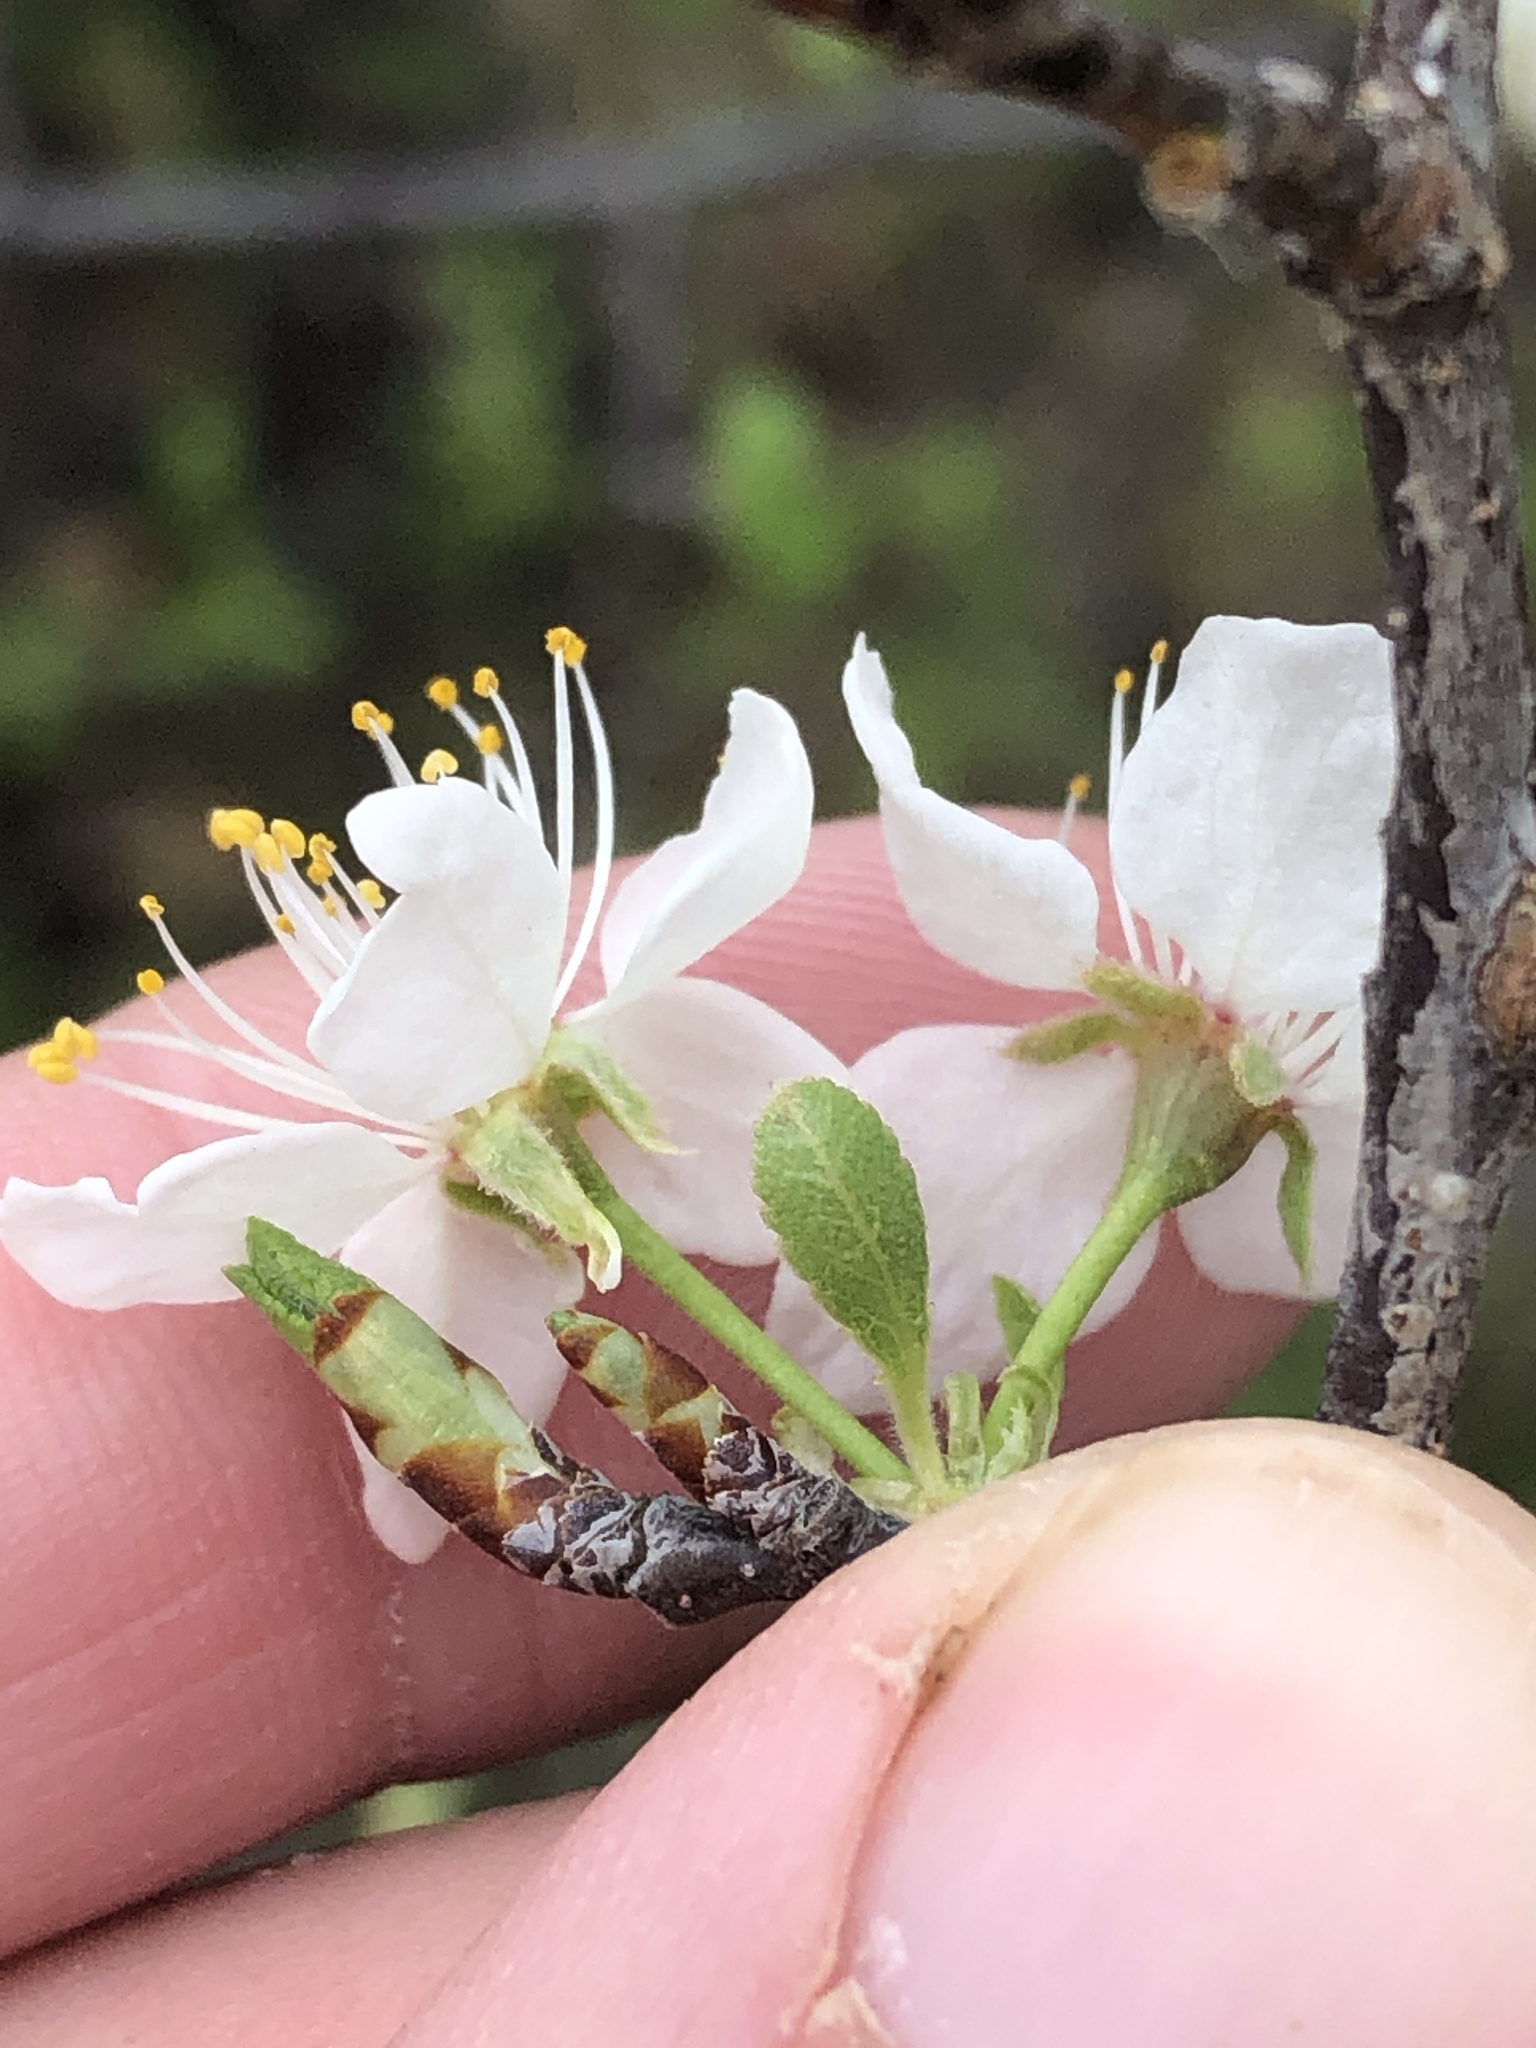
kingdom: Plantae
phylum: Tracheophyta
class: Magnoliopsida
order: Rosales
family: Rosaceae
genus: Prunus
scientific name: Prunus mexicana
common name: Mexican plum
